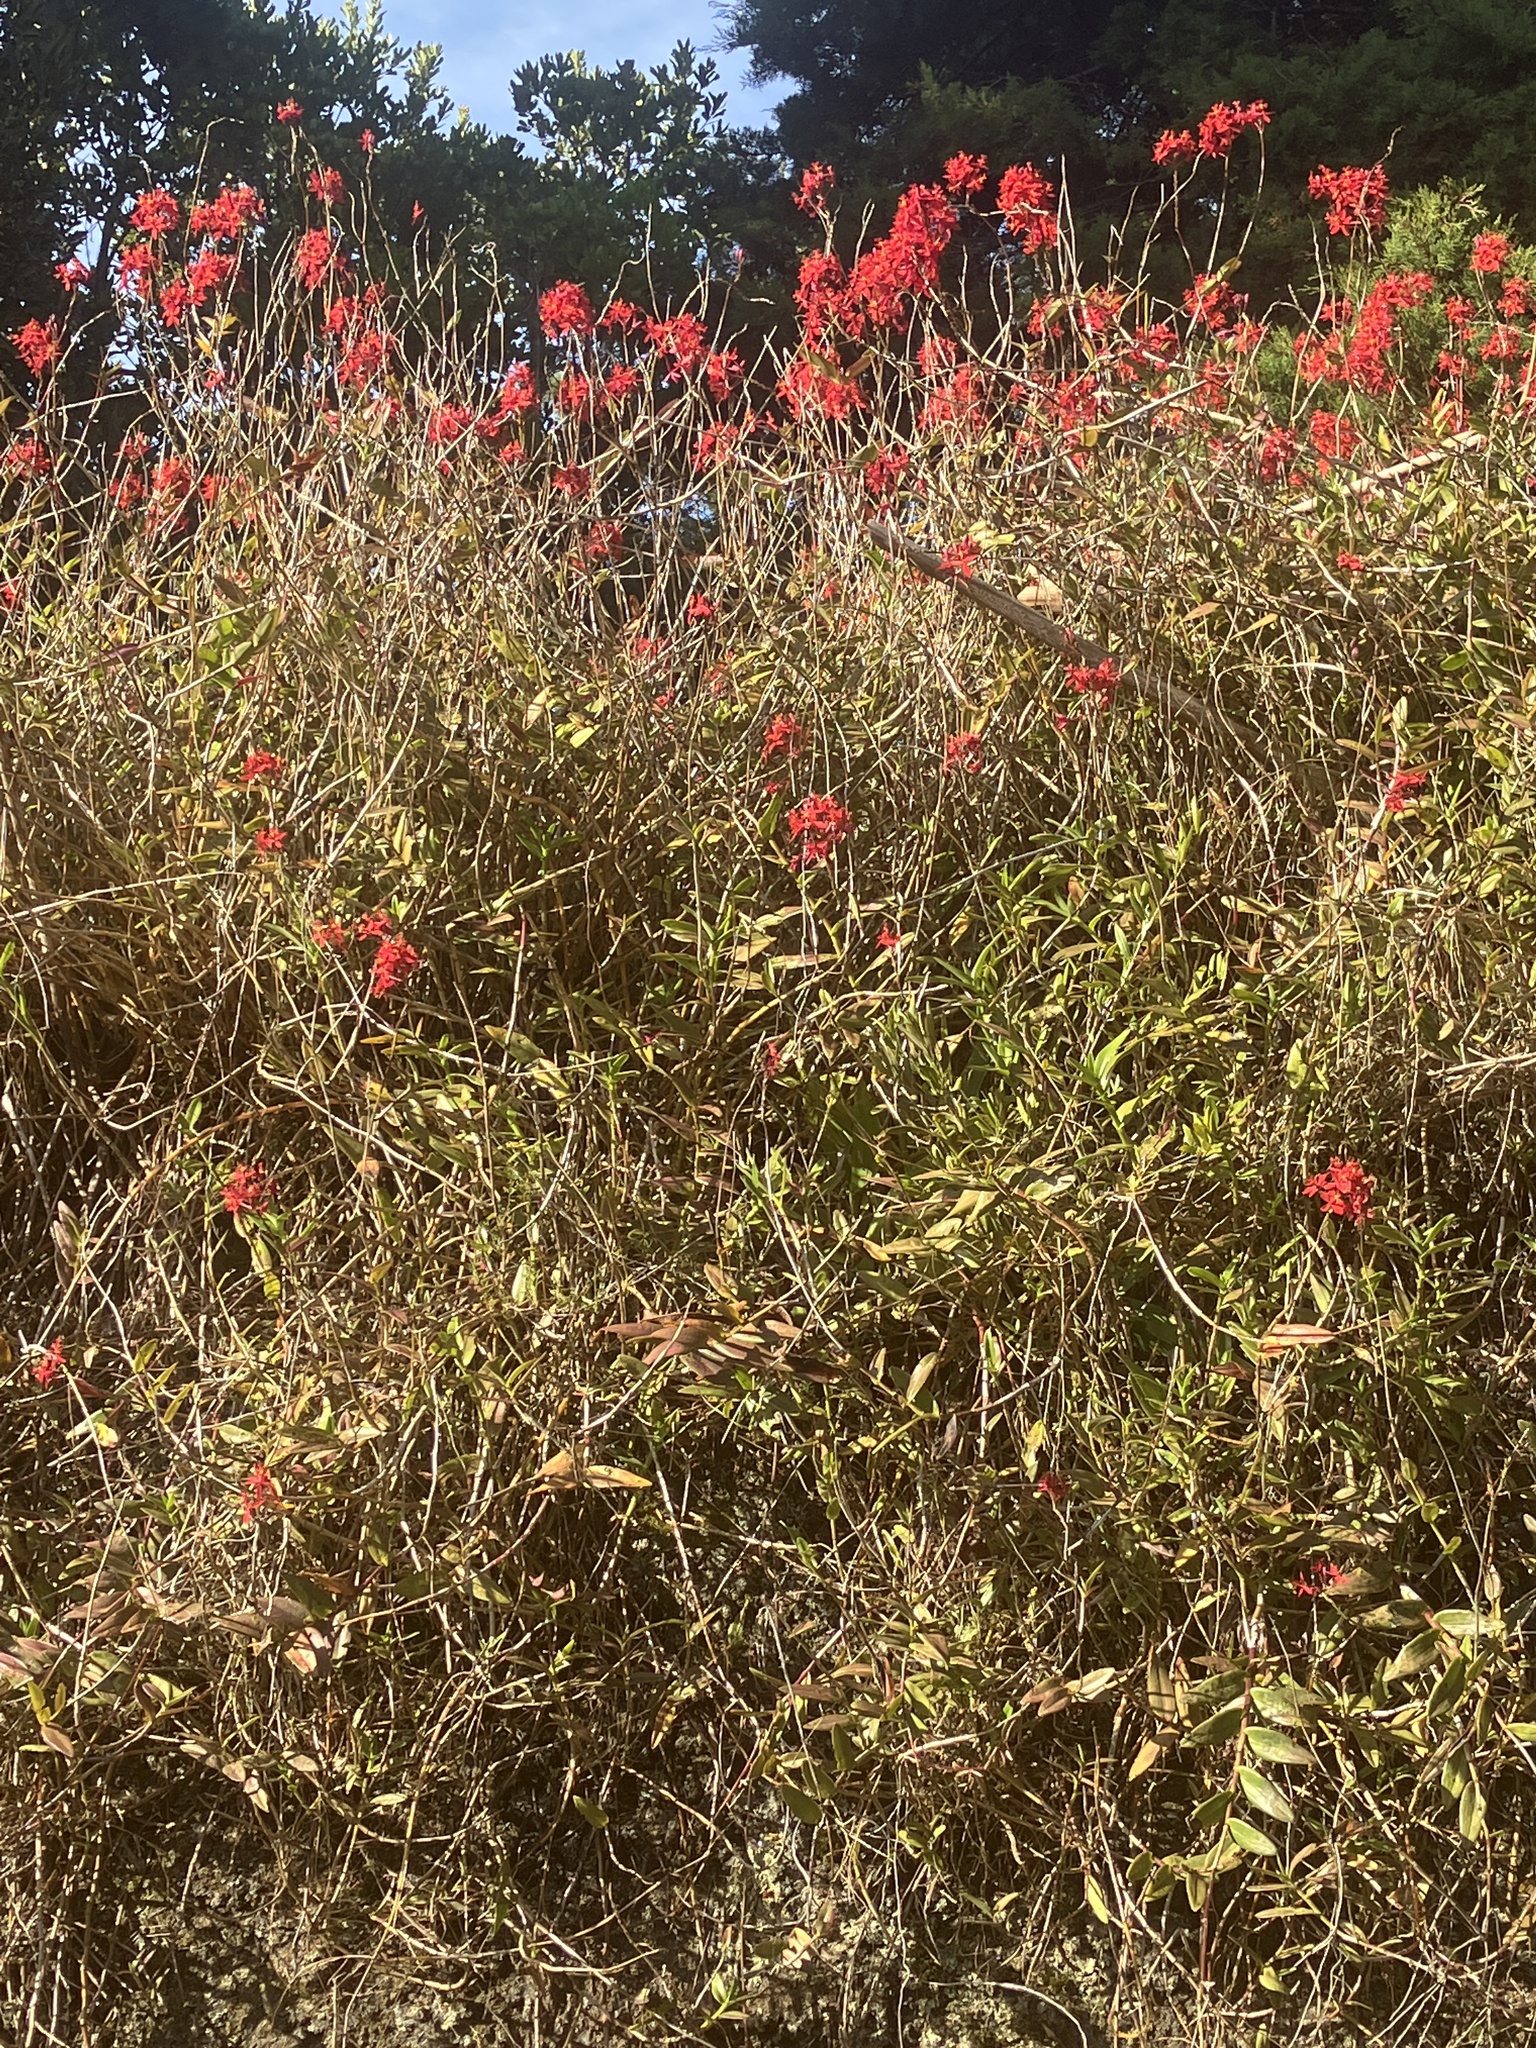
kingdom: Plantae
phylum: Tracheophyta
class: Liliopsida
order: Asparagales
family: Orchidaceae
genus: Epidendrum
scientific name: Epidendrum ibaguense
